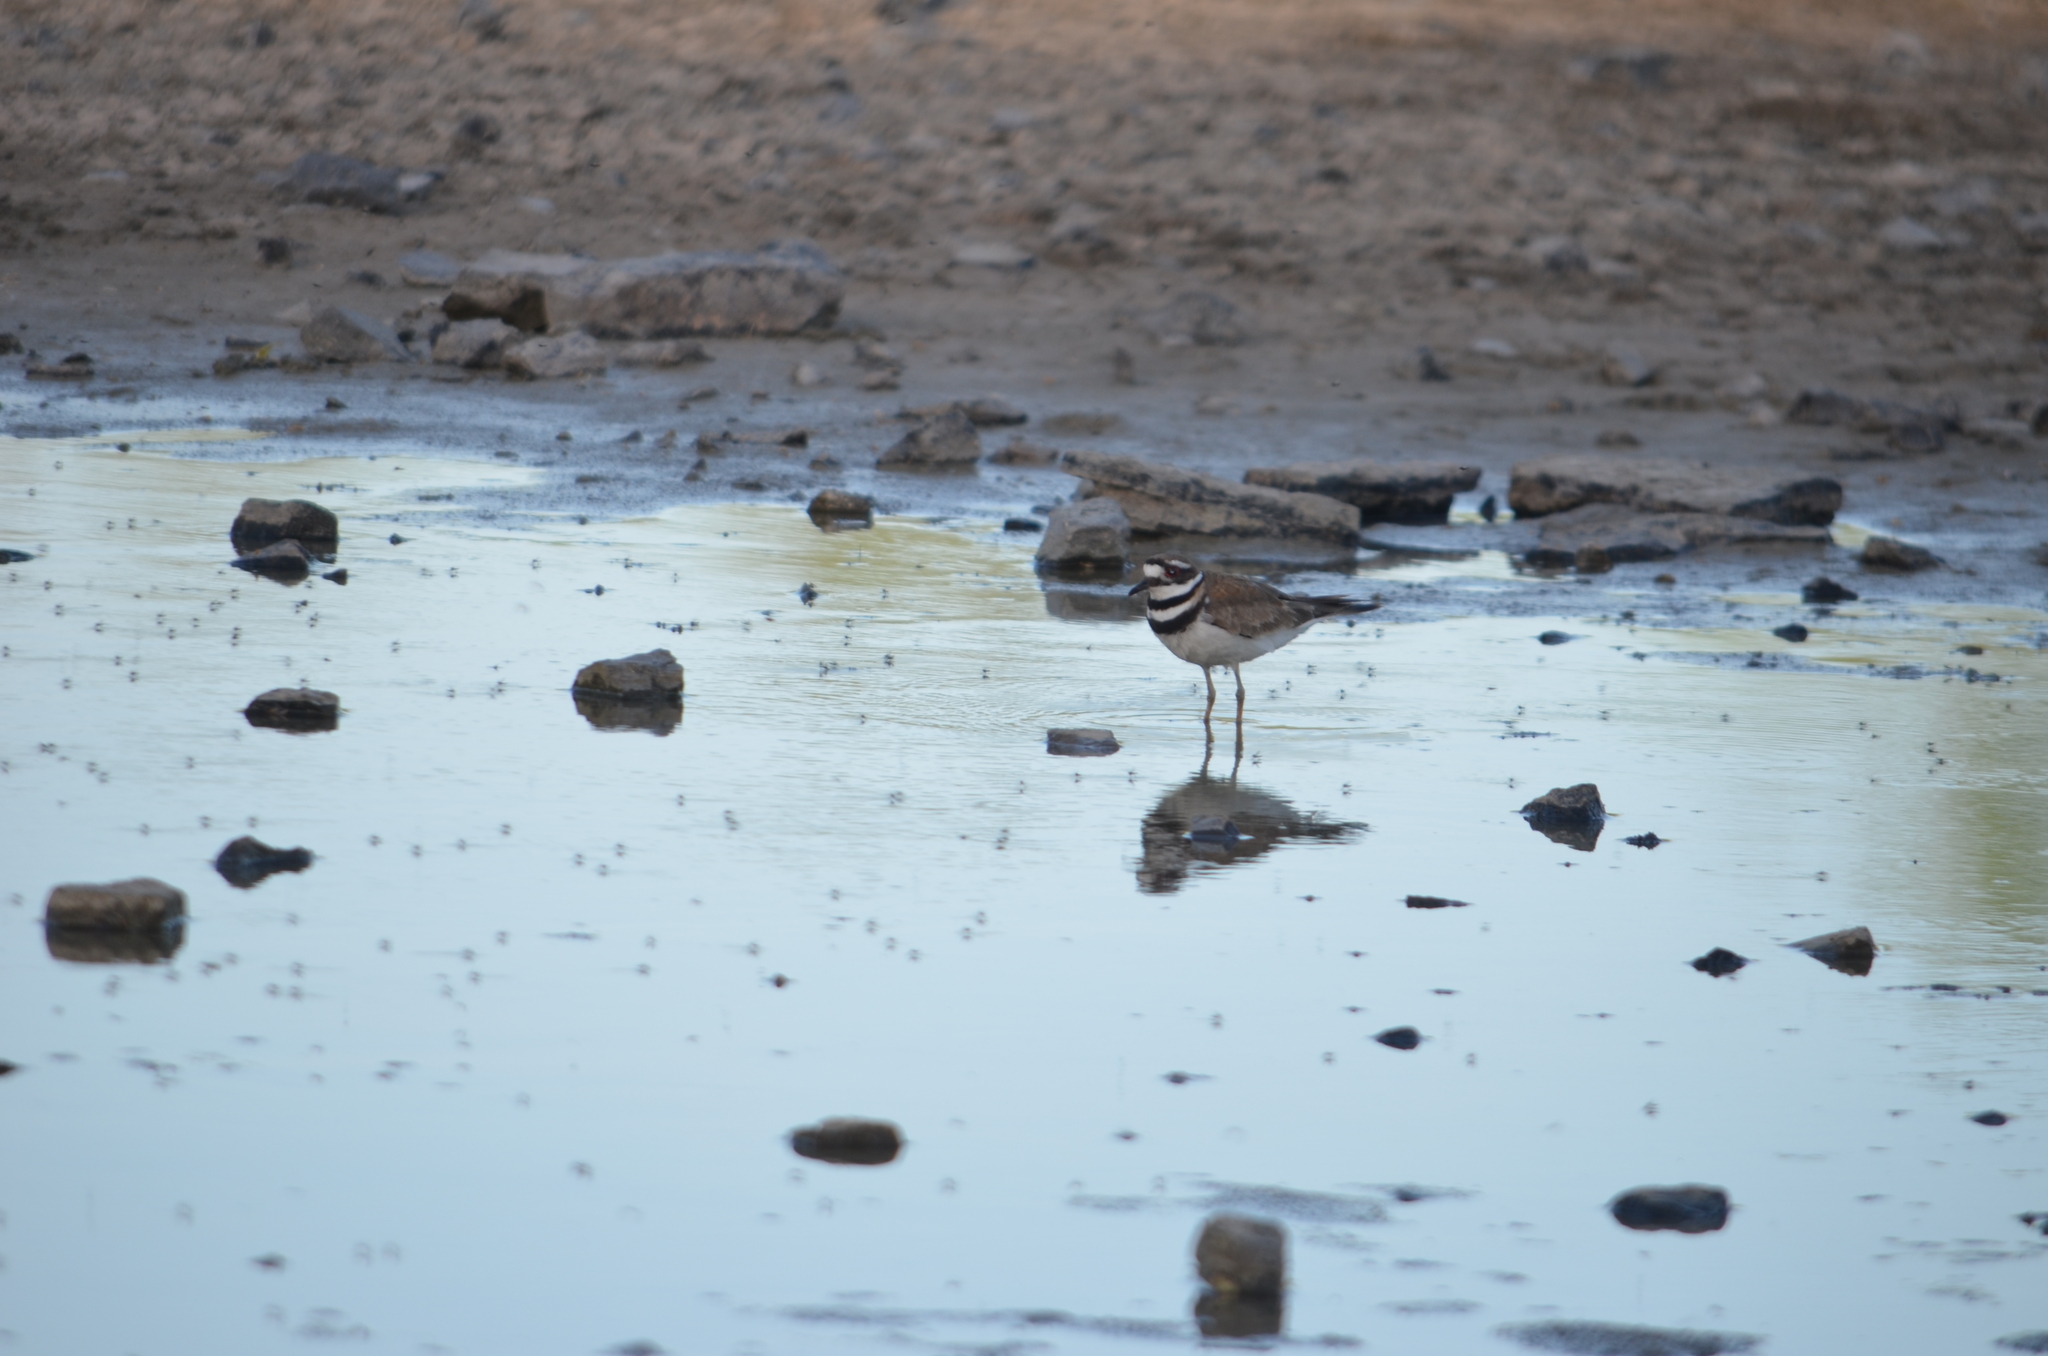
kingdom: Animalia
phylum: Chordata
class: Aves
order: Charadriiformes
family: Charadriidae
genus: Charadrius
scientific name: Charadrius vociferus
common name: Killdeer
